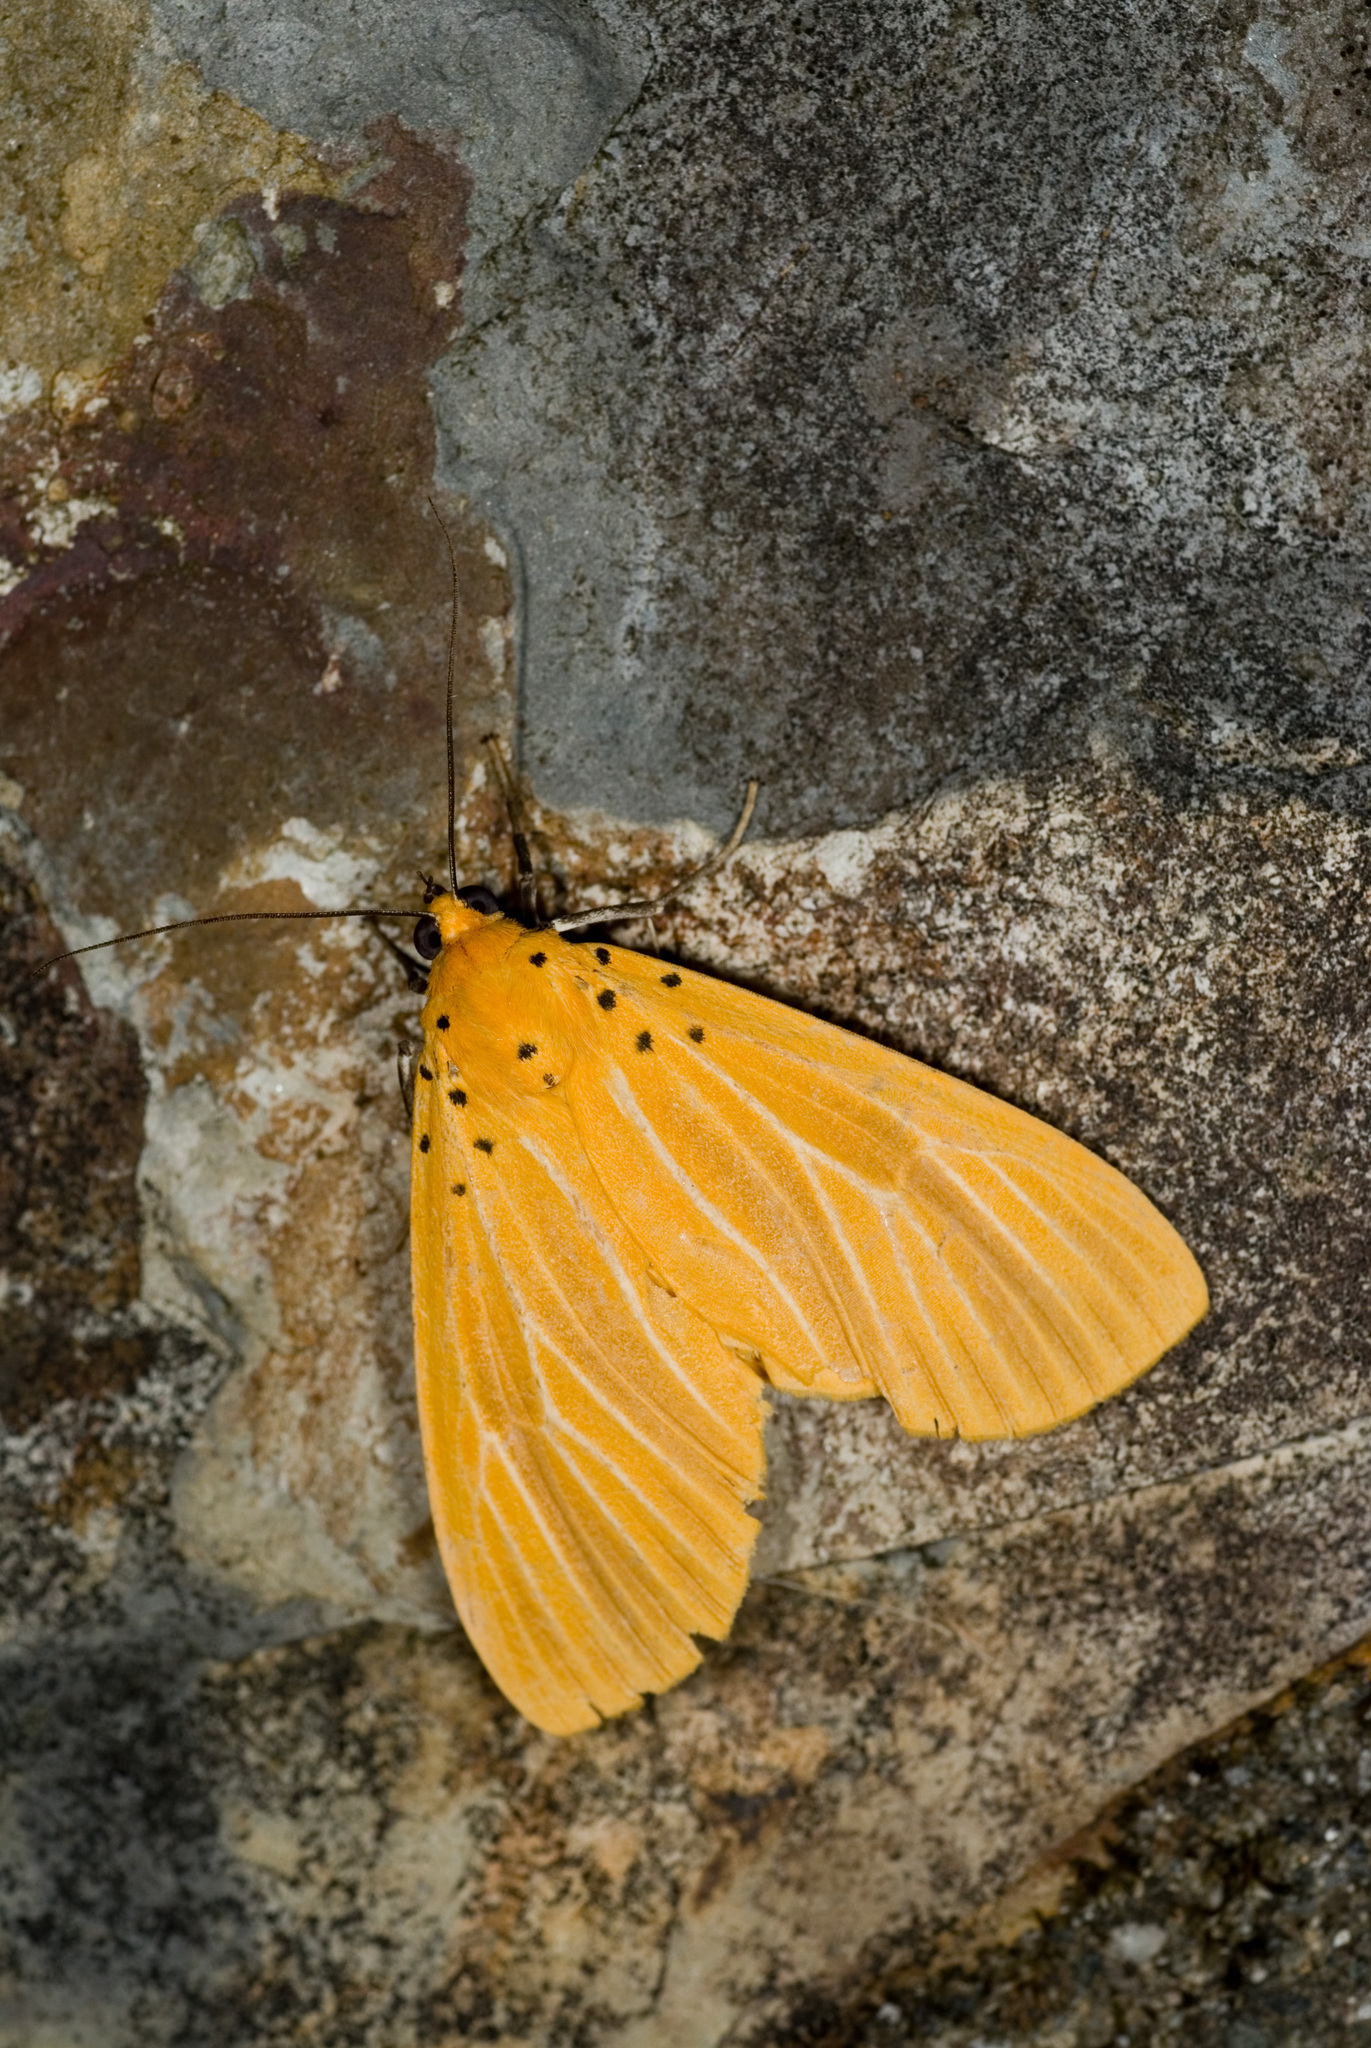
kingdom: Animalia
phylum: Arthropoda
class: Insecta
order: Lepidoptera
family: Erebidae
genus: Asota
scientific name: Asota egens
